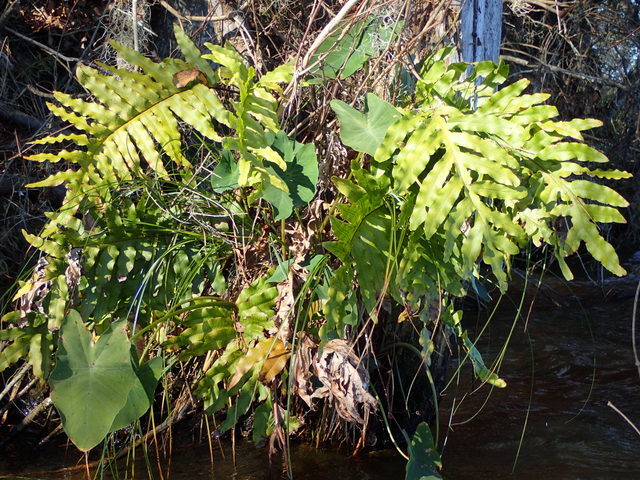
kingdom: Plantae
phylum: Tracheophyta
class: Polypodiopsida
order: Polypodiales
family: Polypodiaceae
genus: Phlebodium
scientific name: Phlebodium aureum
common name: Gold-foot fern
